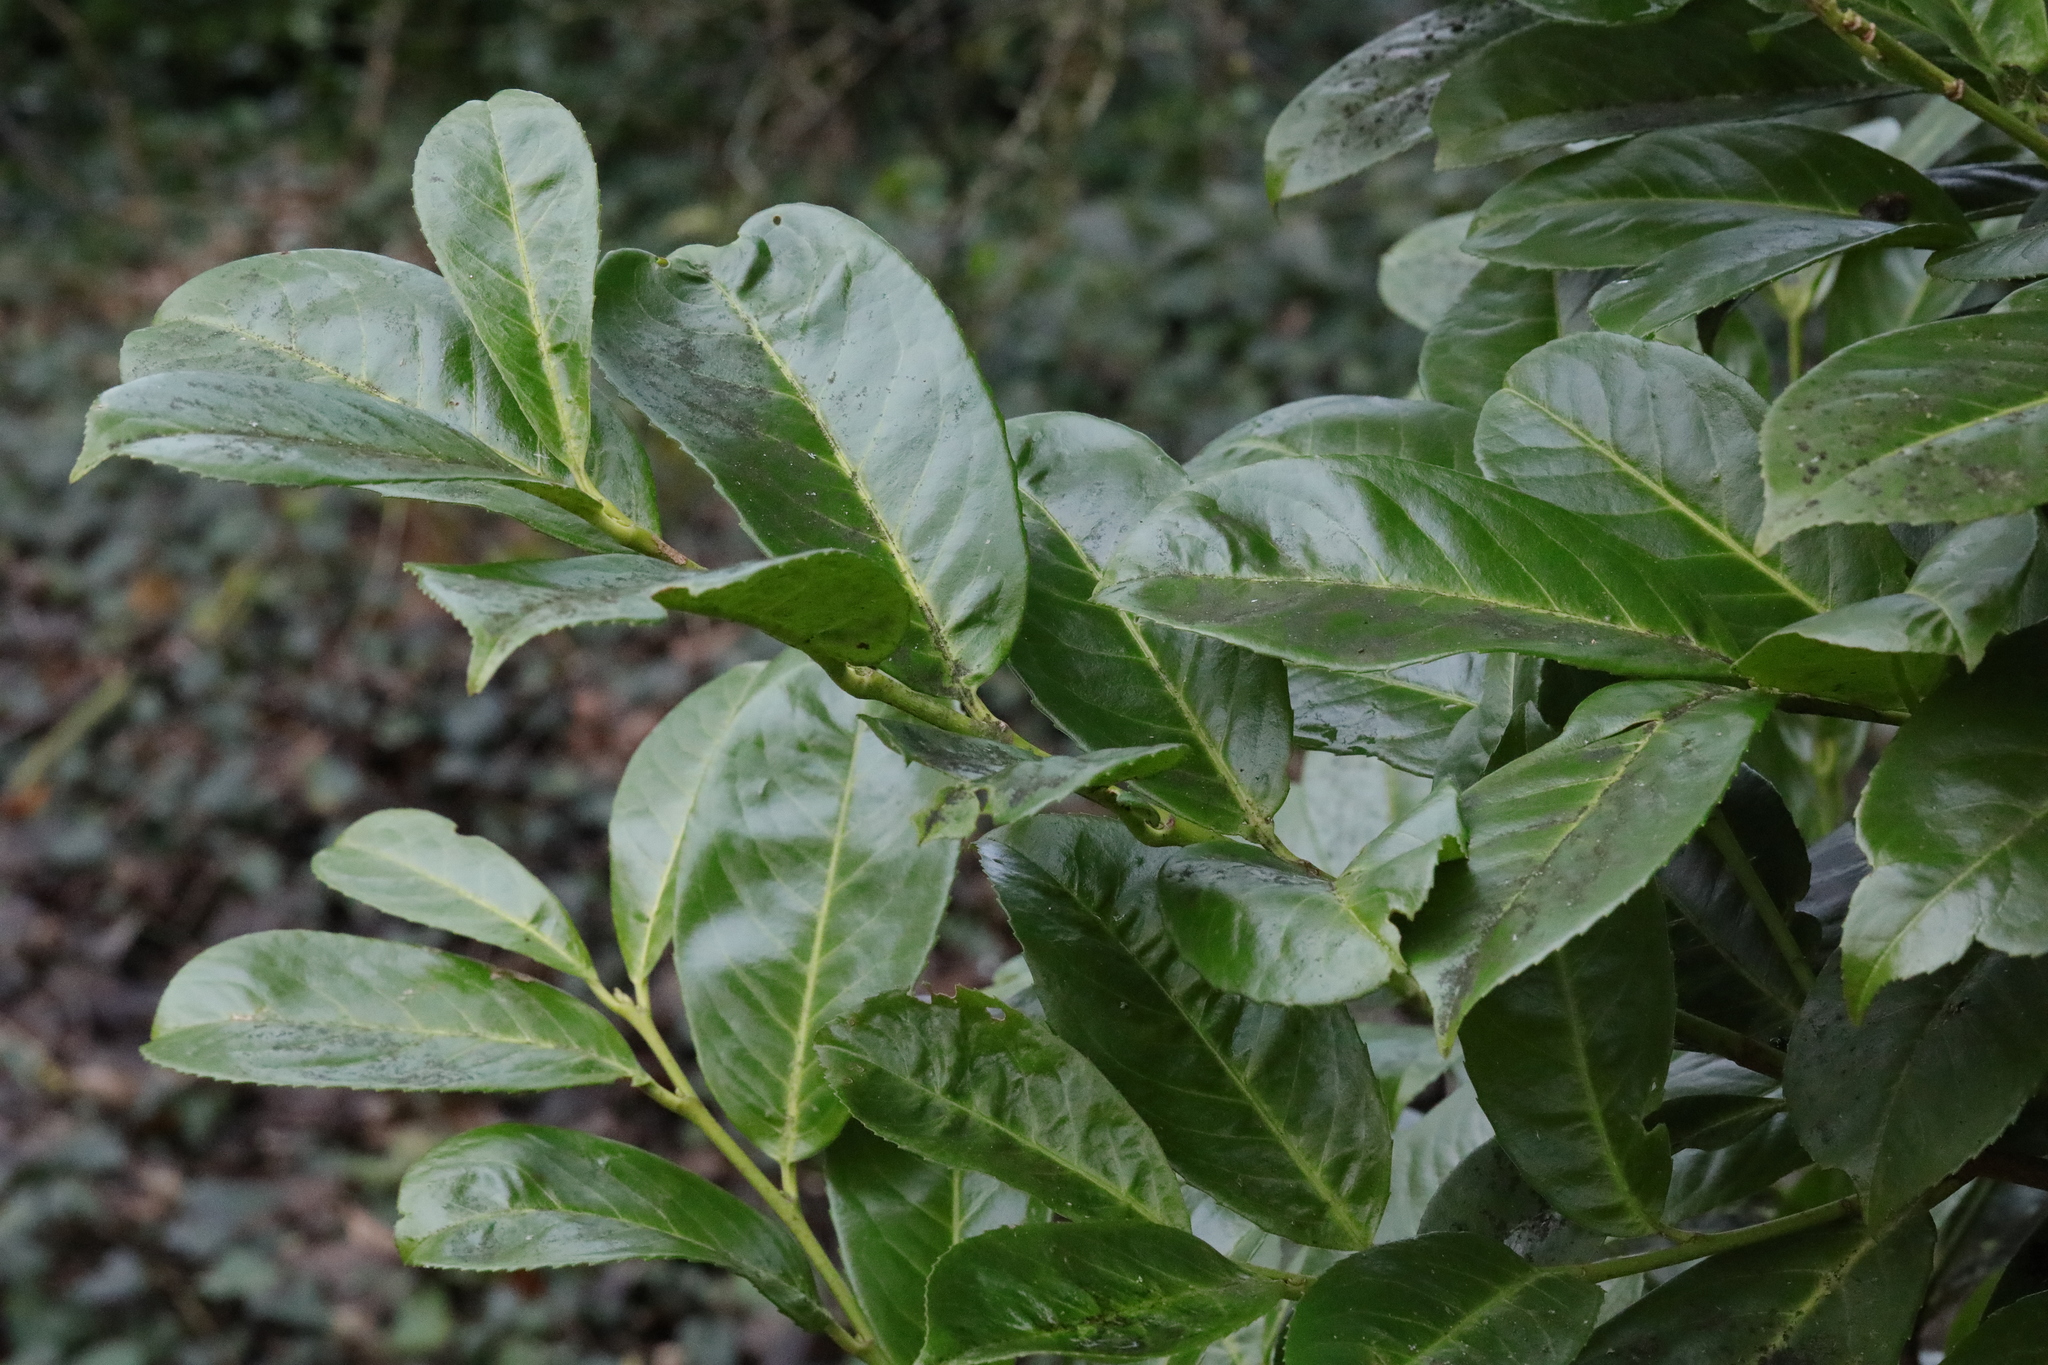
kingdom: Plantae
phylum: Tracheophyta
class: Magnoliopsida
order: Rosales
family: Rosaceae
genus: Prunus
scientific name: Prunus laurocerasus
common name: Cherry laurel
